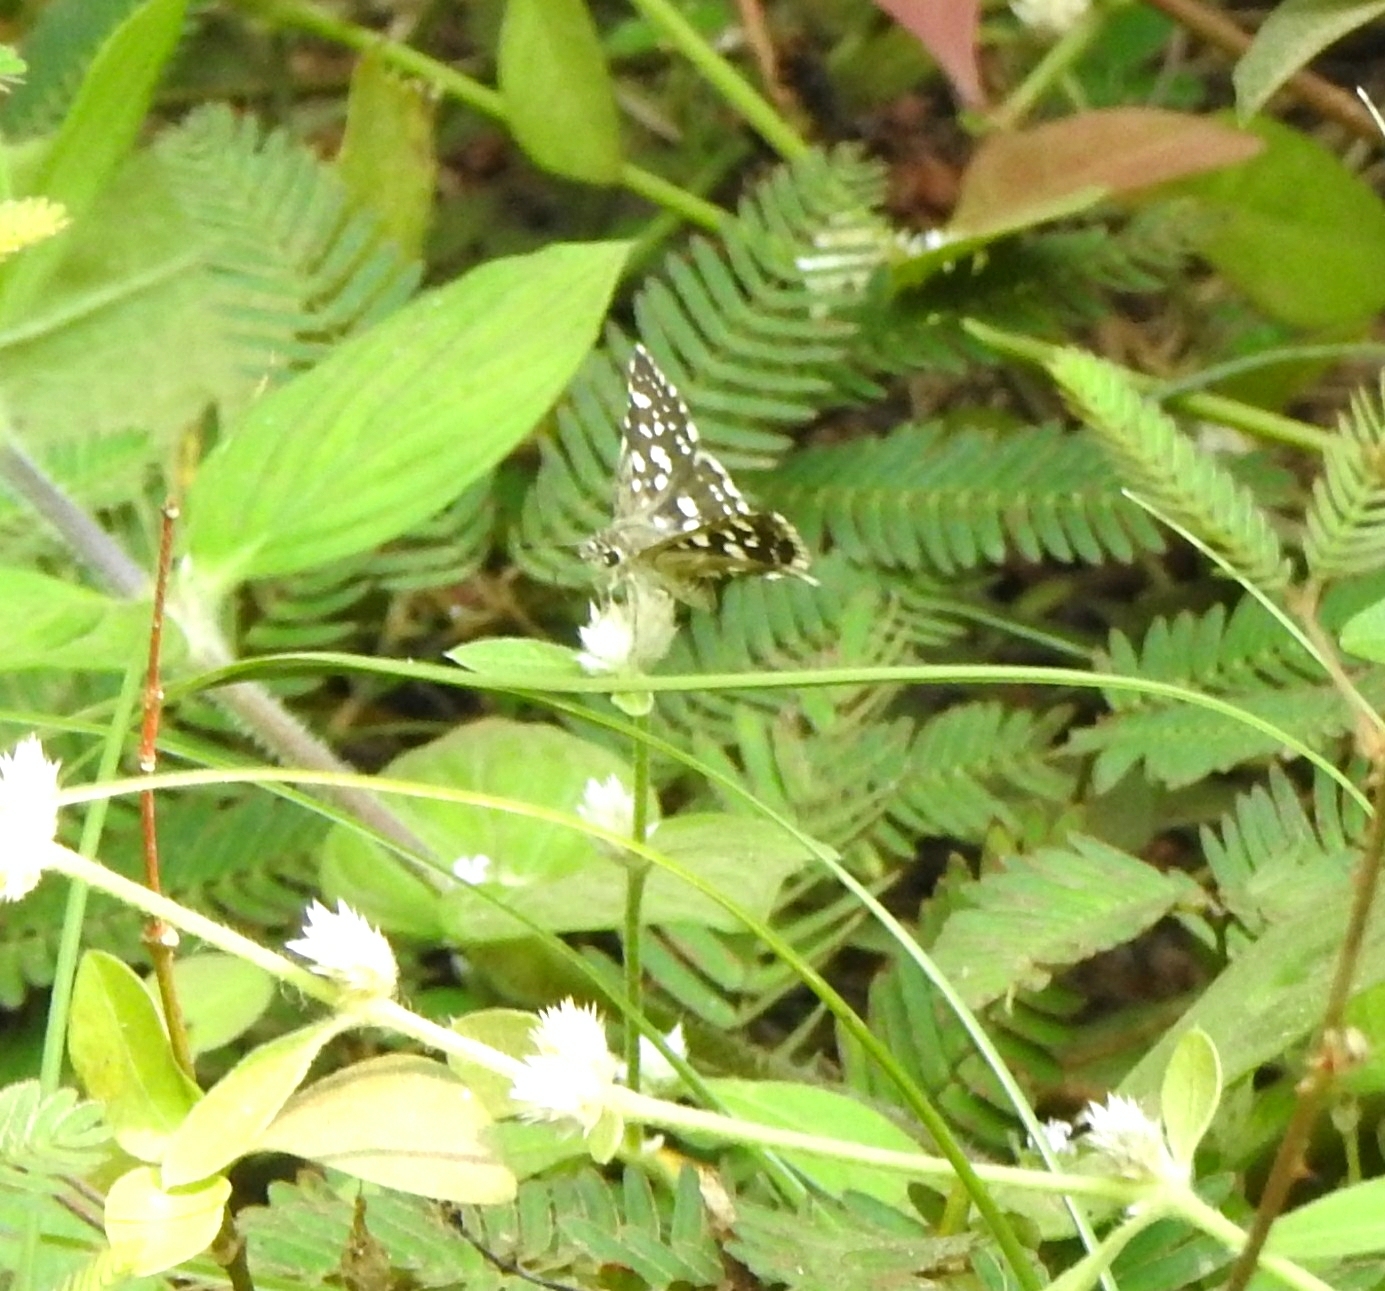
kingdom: Animalia
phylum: Arthropoda
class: Insecta
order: Lepidoptera
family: Hesperiidae
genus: Spialia
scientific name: Spialia galba
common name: Indian skipper
